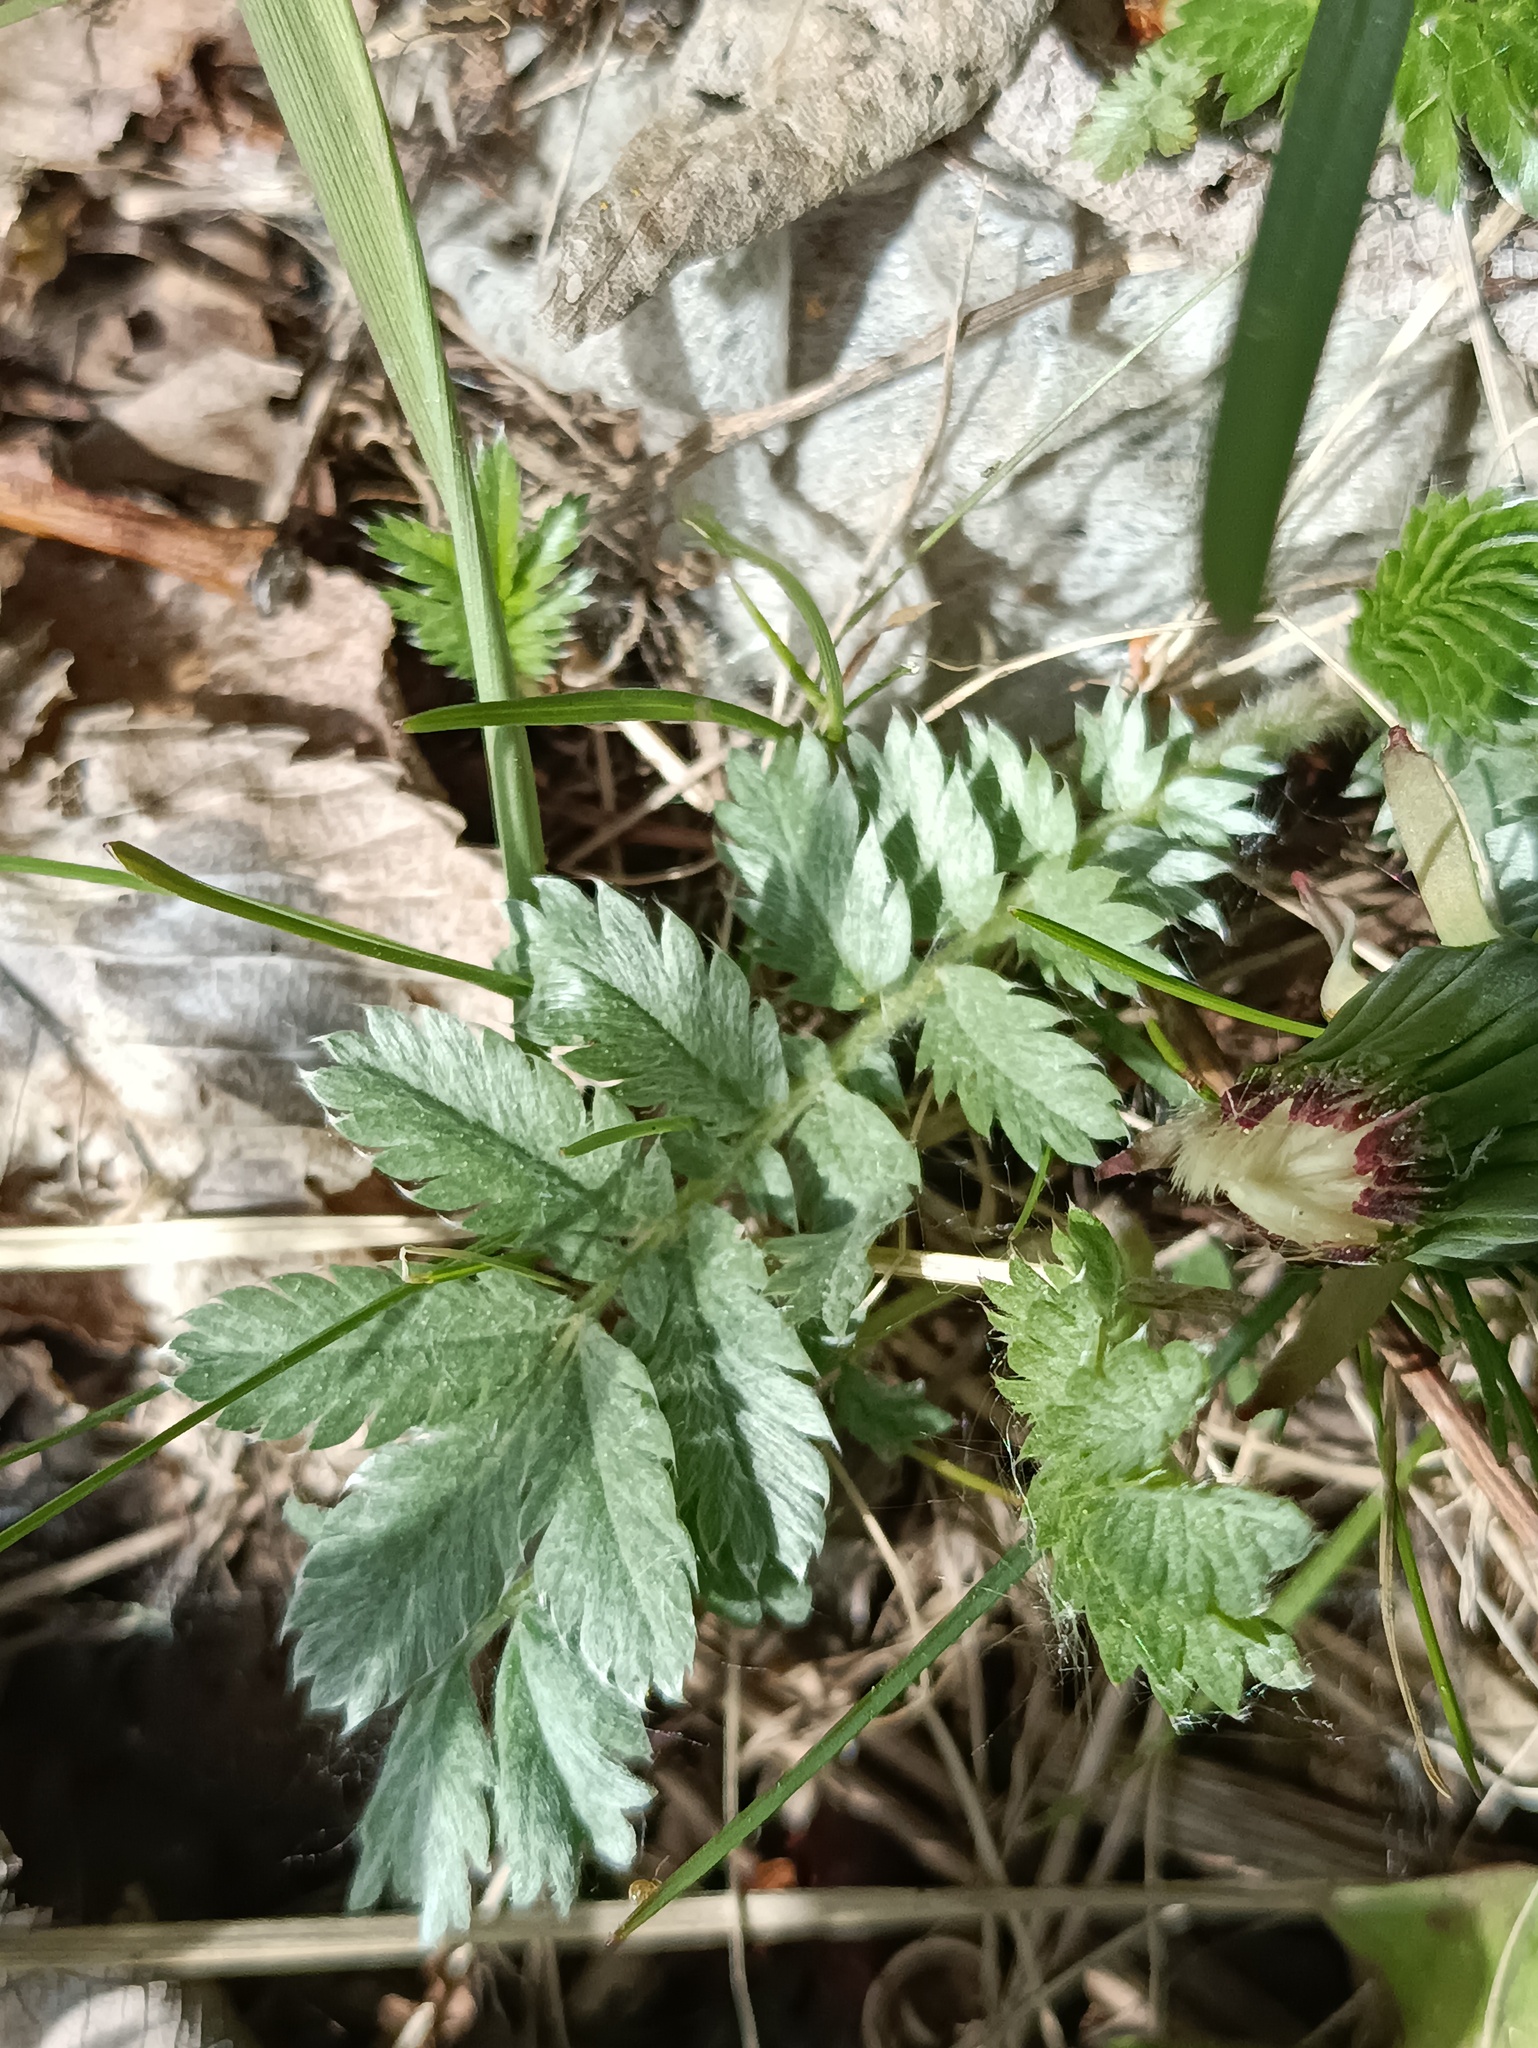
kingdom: Plantae
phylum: Tracheophyta
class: Magnoliopsida
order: Rosales
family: Rosaceae
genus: Argentina
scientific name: Argentina anserina
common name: Common silverweed
